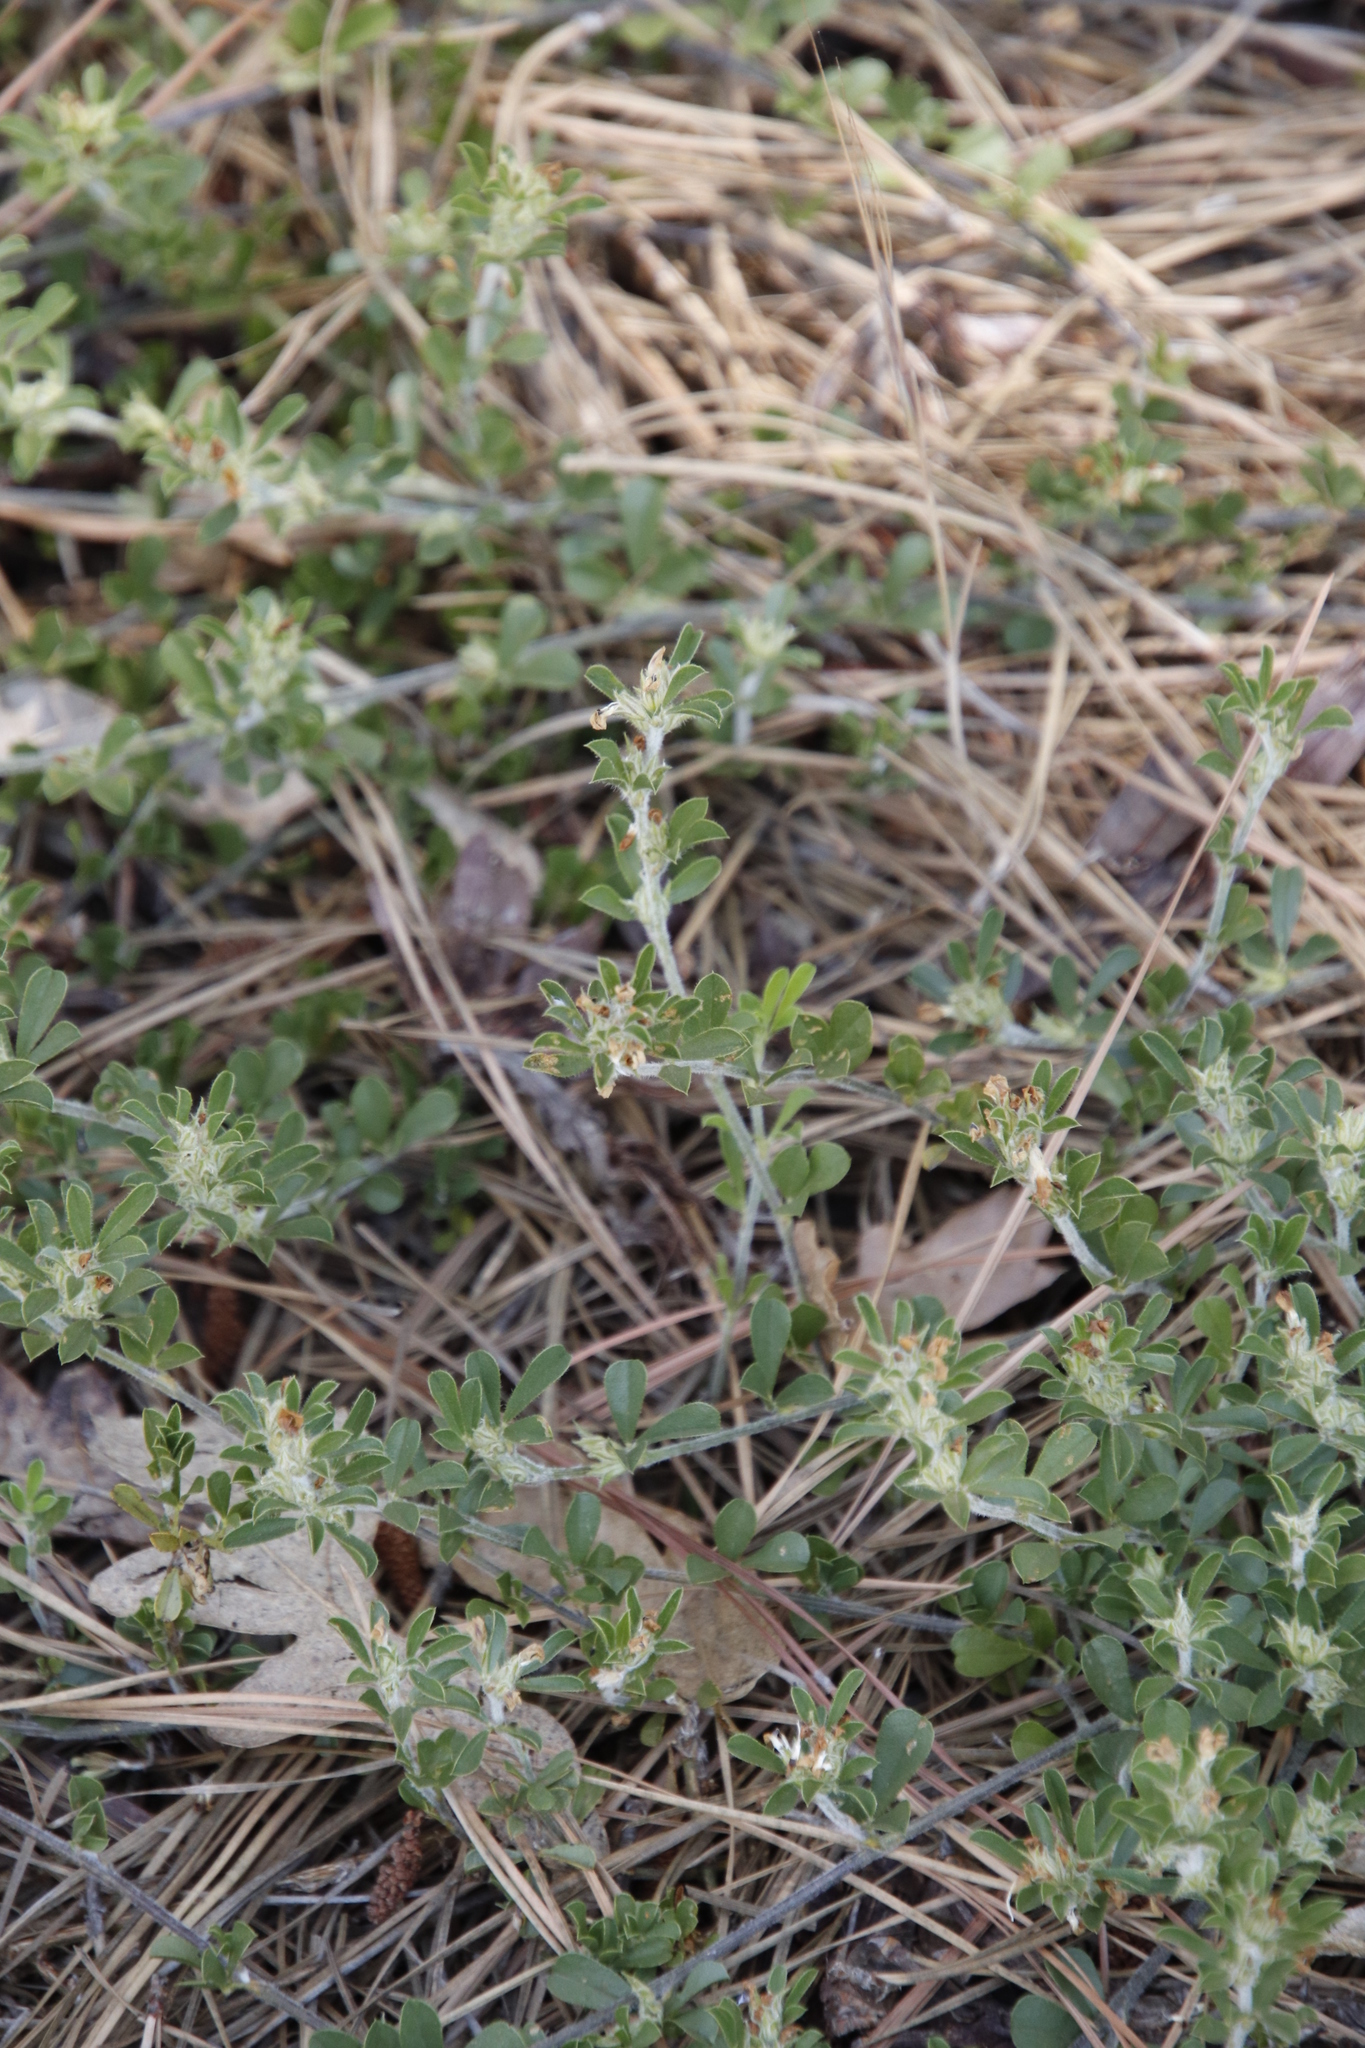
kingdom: Plantae
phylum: Tracheophyta
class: Magnoliopsida
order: Fabales
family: Fabaceae
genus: Psoralea
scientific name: Psoralea
